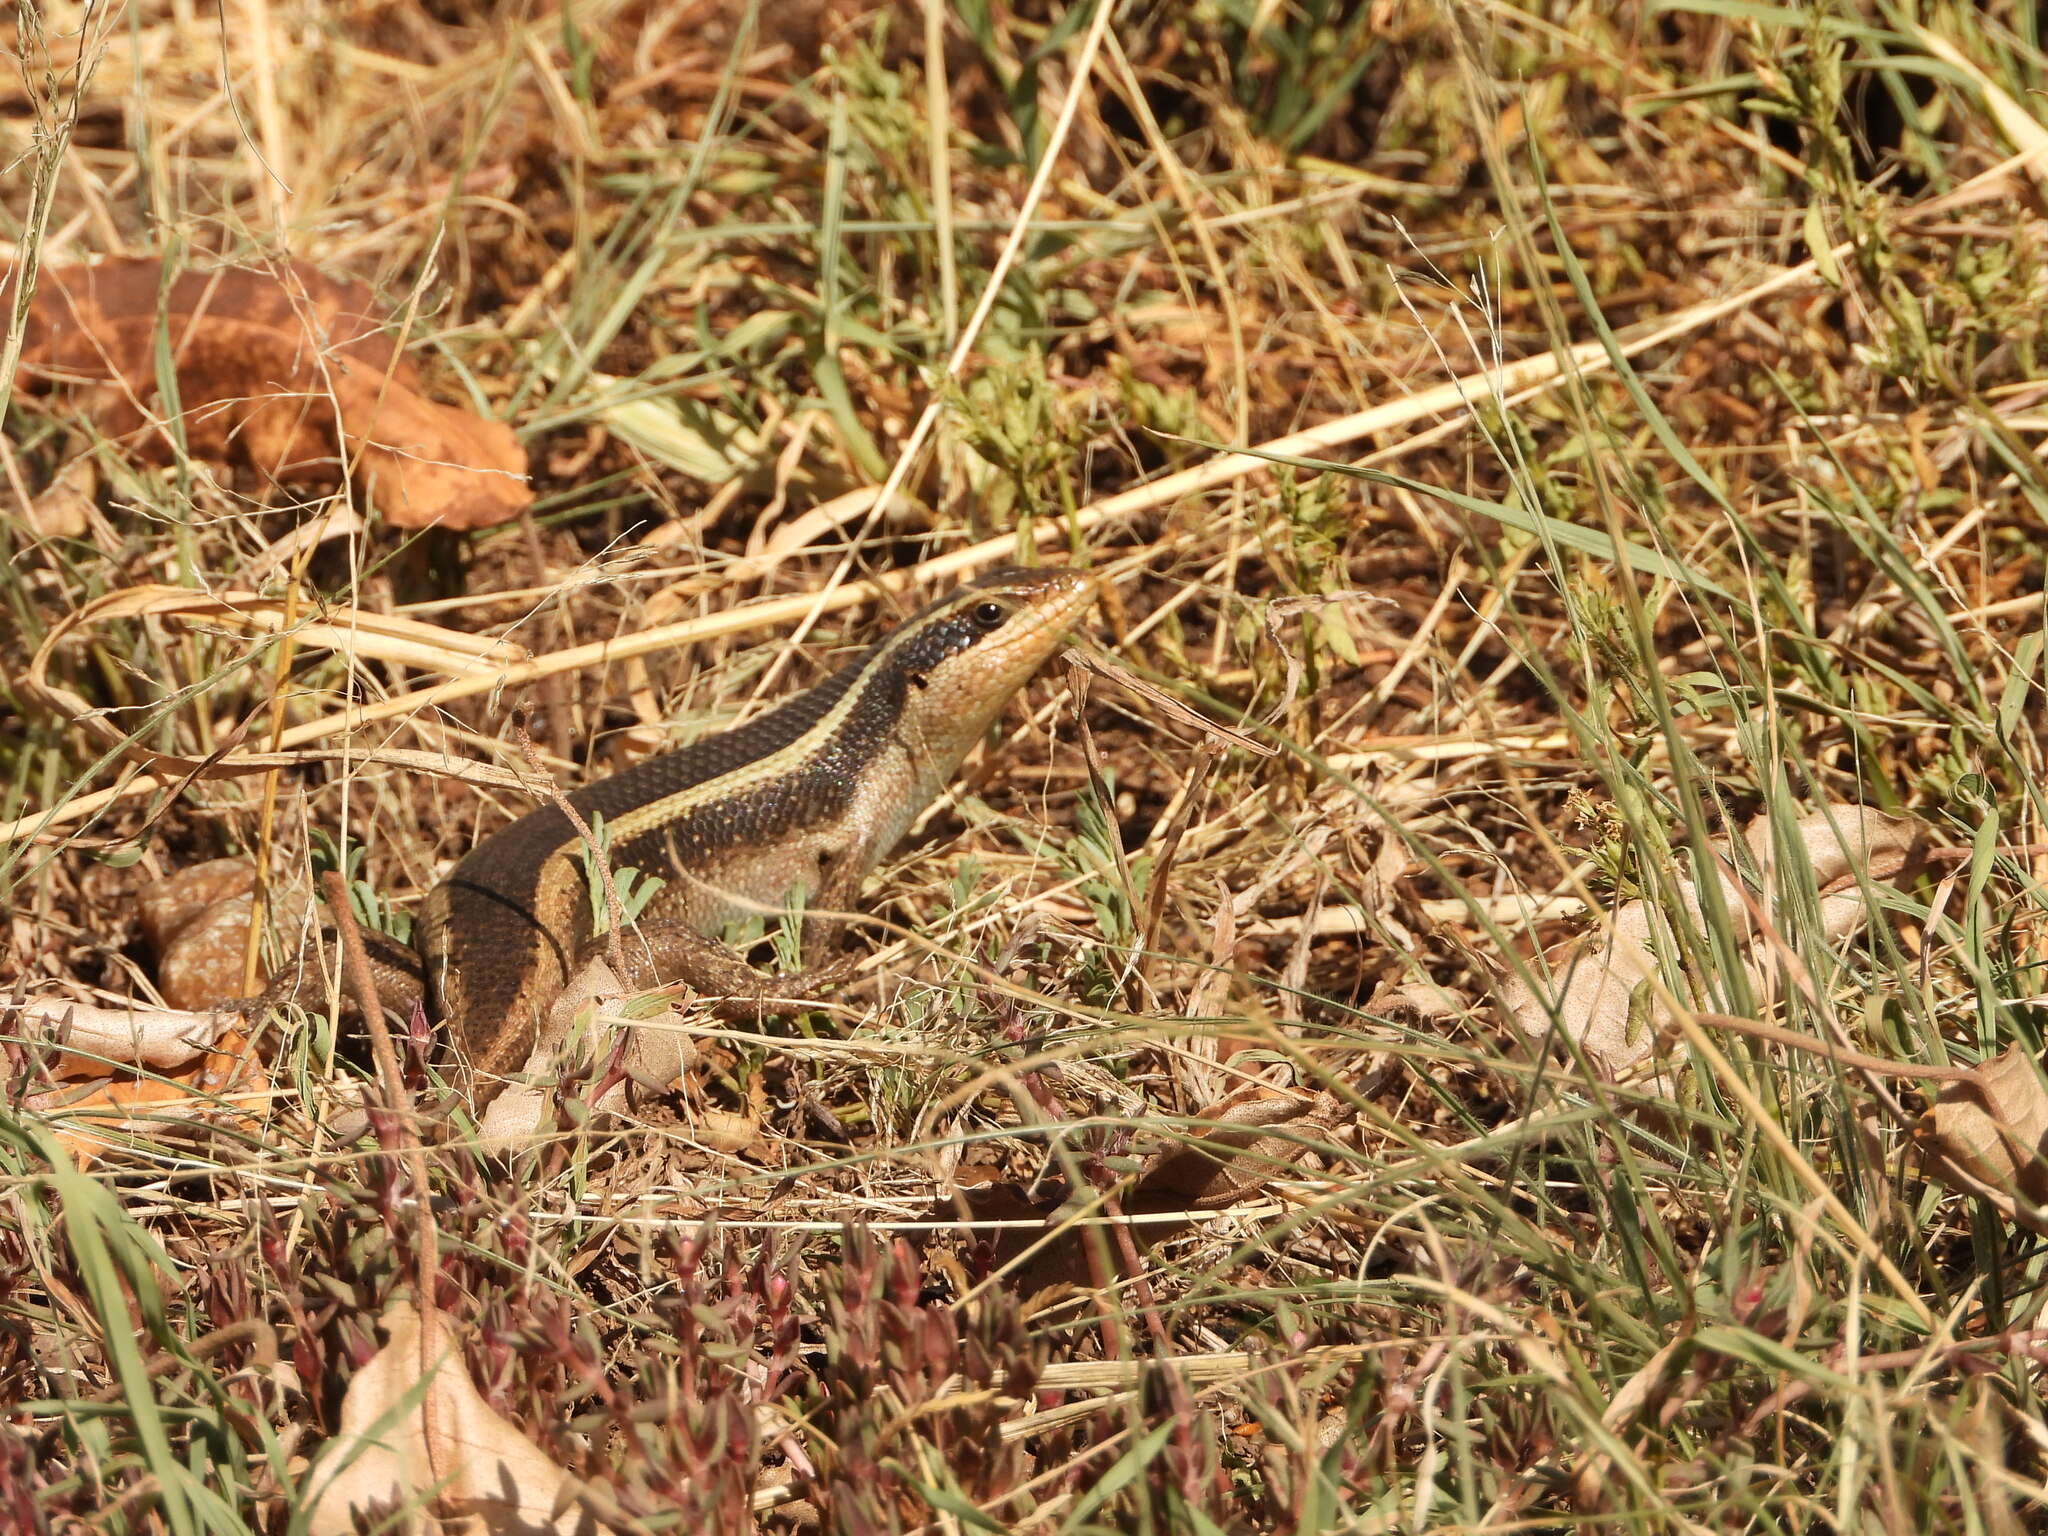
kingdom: Animalia
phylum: Chordata
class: Squamata
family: Scincidae
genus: Trachylepis
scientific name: Trachylepis striata
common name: African striped mabuya
